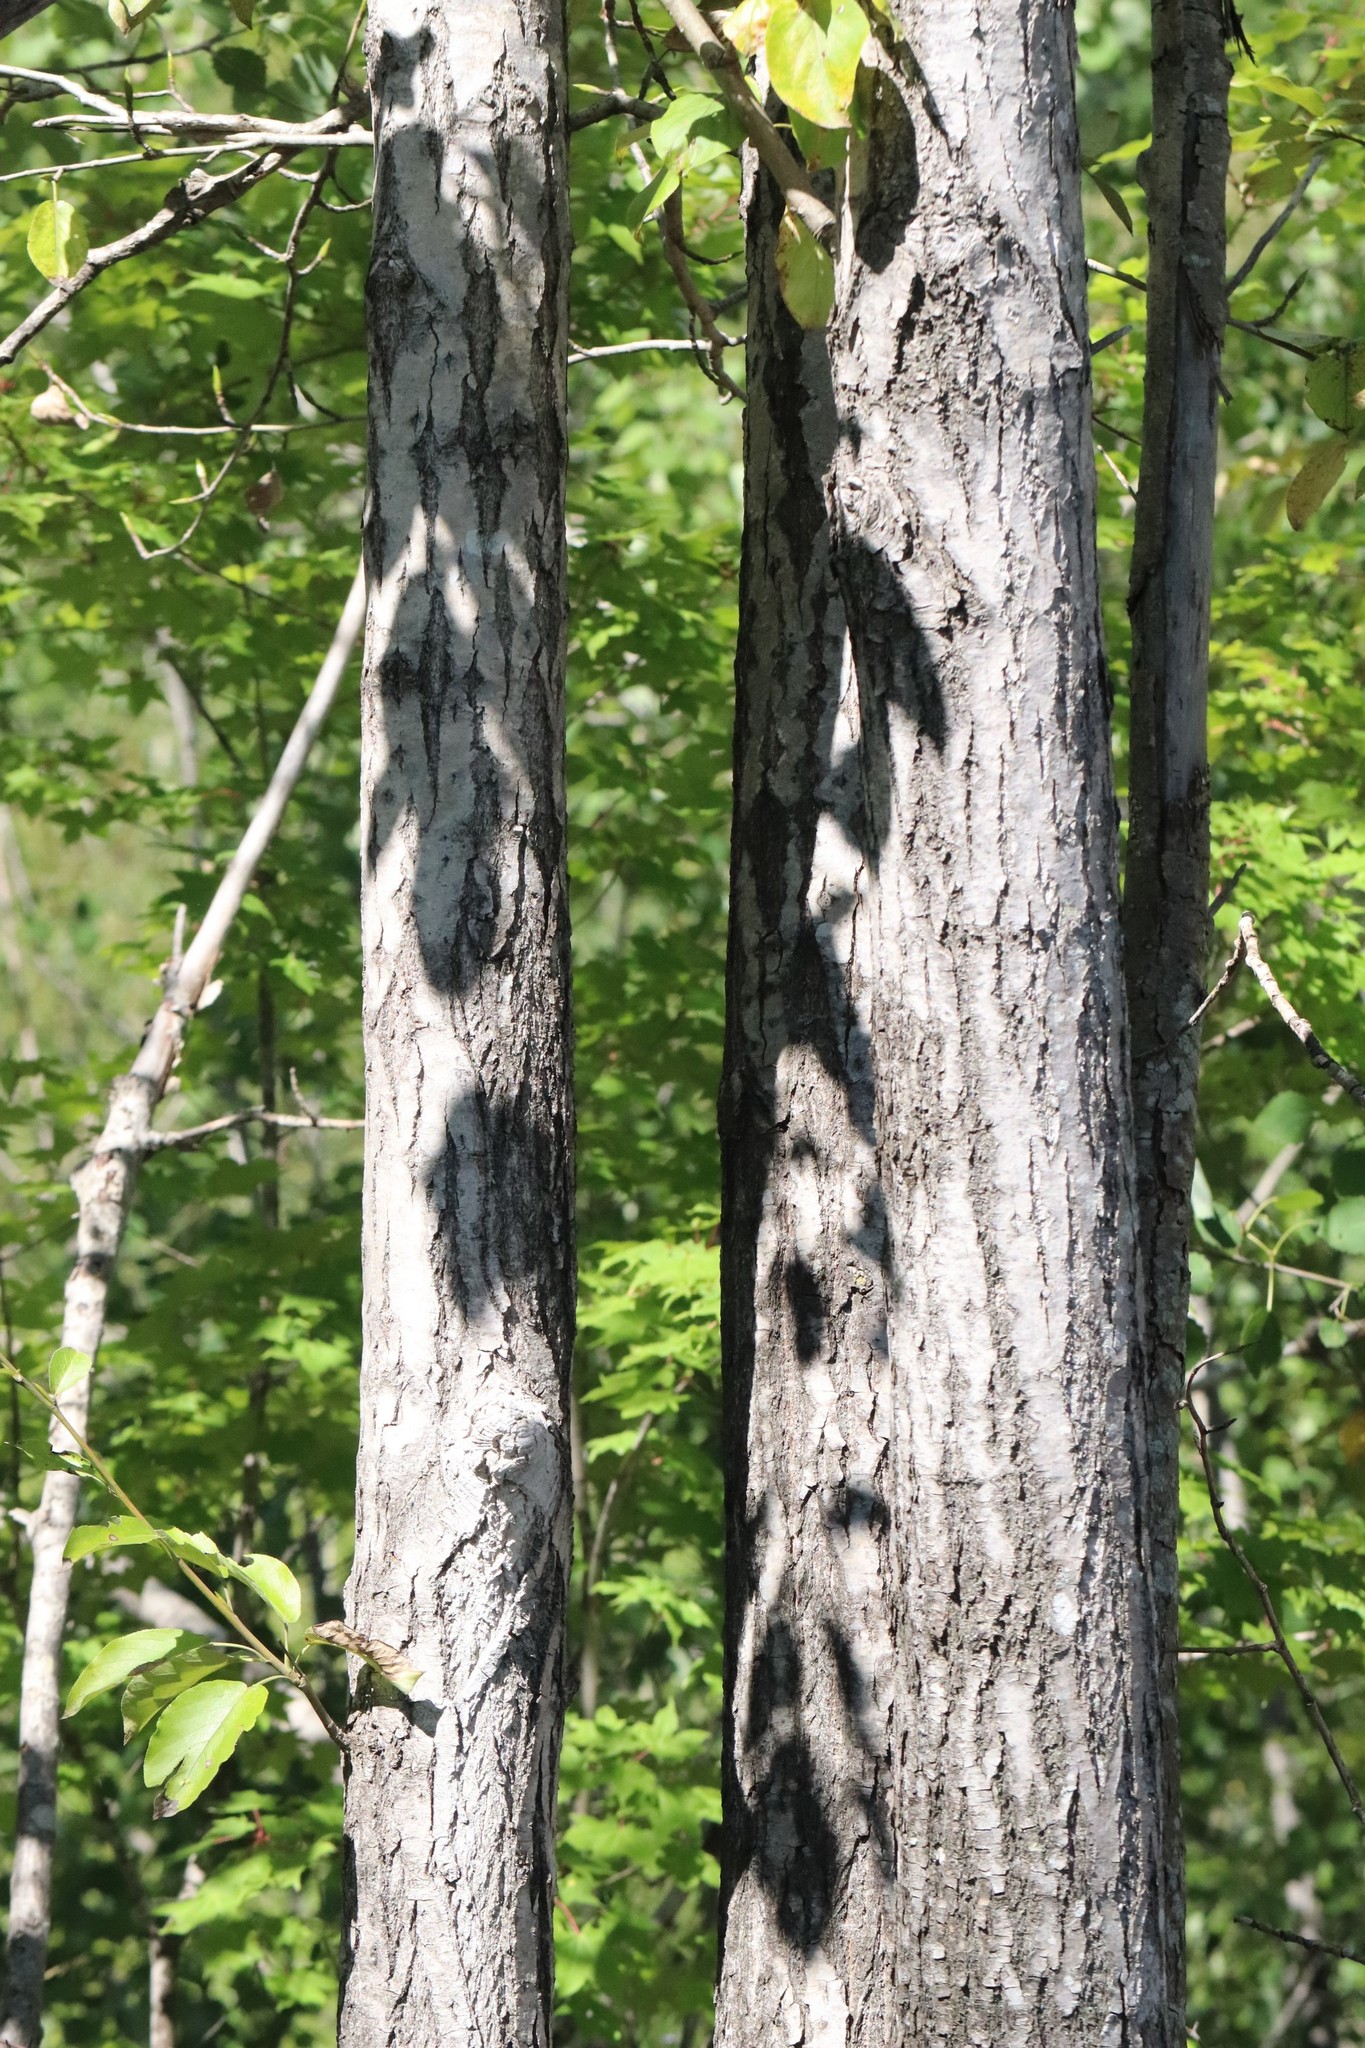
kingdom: Plantae
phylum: Tracheophyta
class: Magnoliopsida
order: Malpighiales
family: Salicaceae
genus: Populus
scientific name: Populus suaveolens
